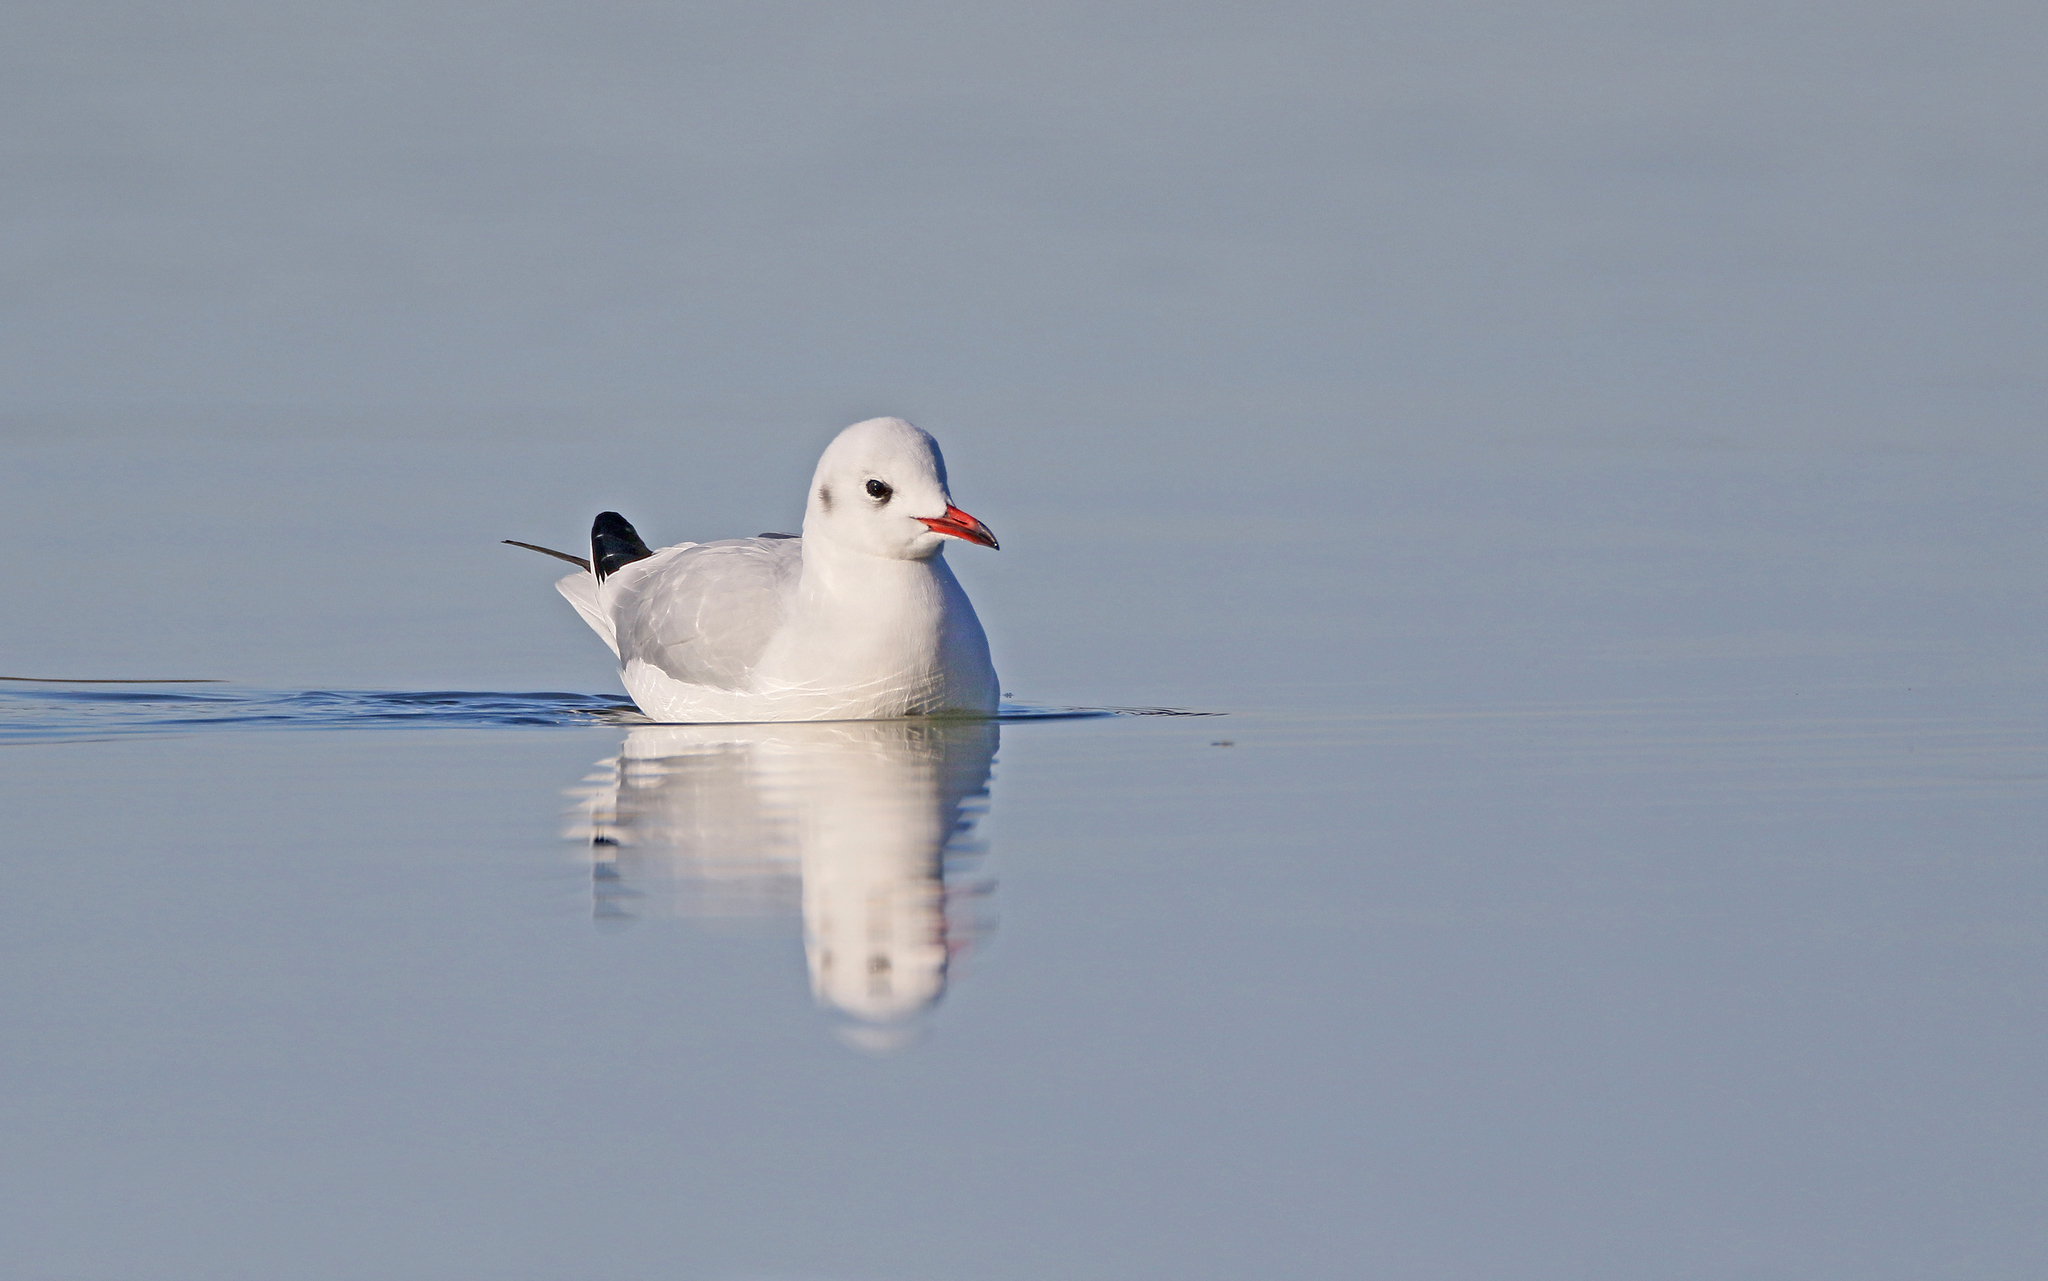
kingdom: Animalia
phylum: Chordata
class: Aves
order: Charadriiformes
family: Laridae
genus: Chroicocephalus
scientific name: Chroicocephalus ridibundus
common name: Black-headed gull
